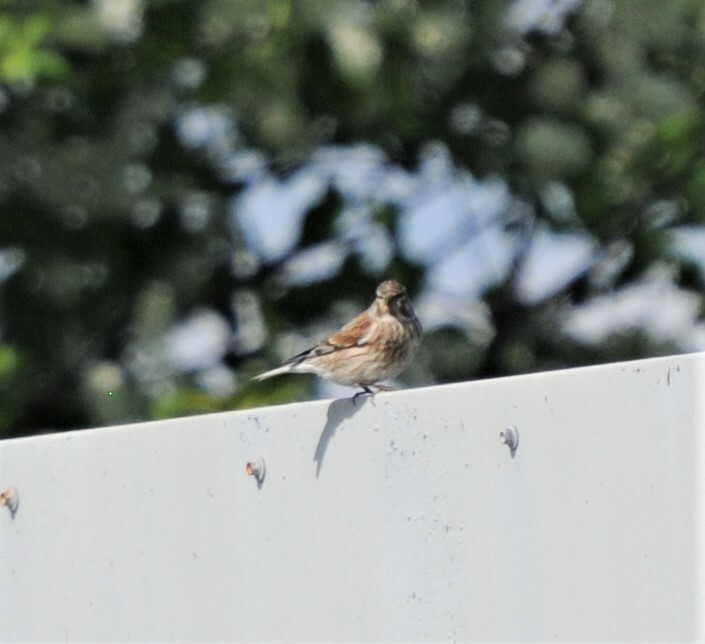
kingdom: Animalia
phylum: Chordata
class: Aves
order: Passeriformes
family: Fringillidae
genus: Linaria
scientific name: Linaria cannabina
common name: Common linnet
